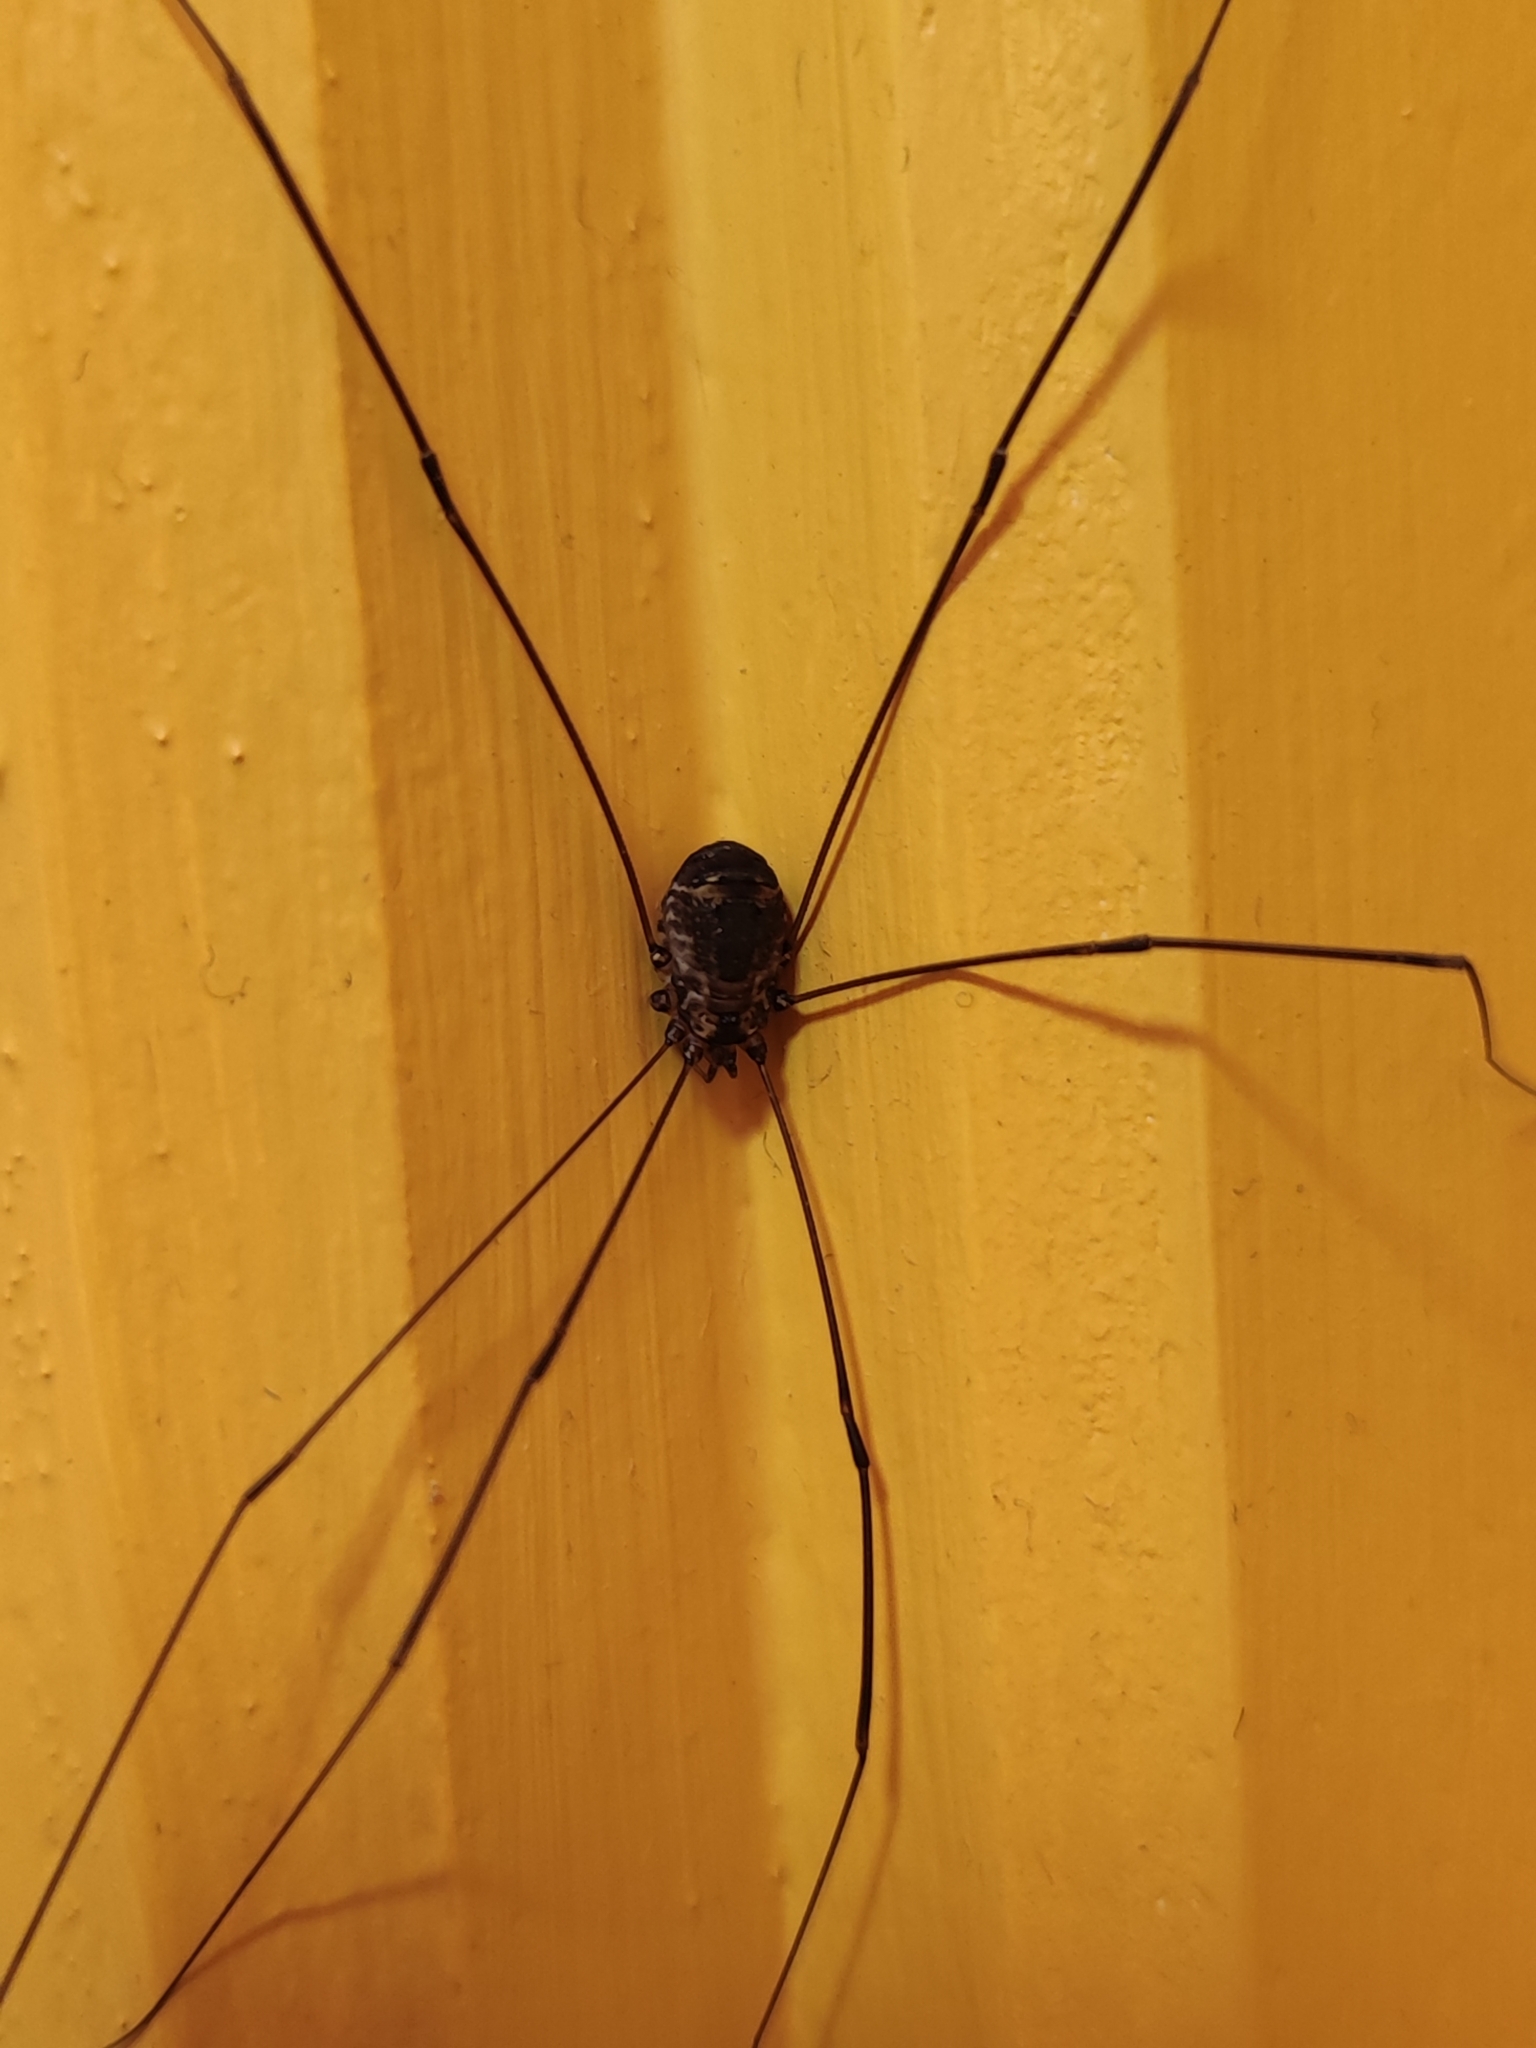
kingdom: Animalia
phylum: Arthropoda
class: Arachnida
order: Opiliones
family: Sclerosomatidae
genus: Leiobunum
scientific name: Leiobunum
